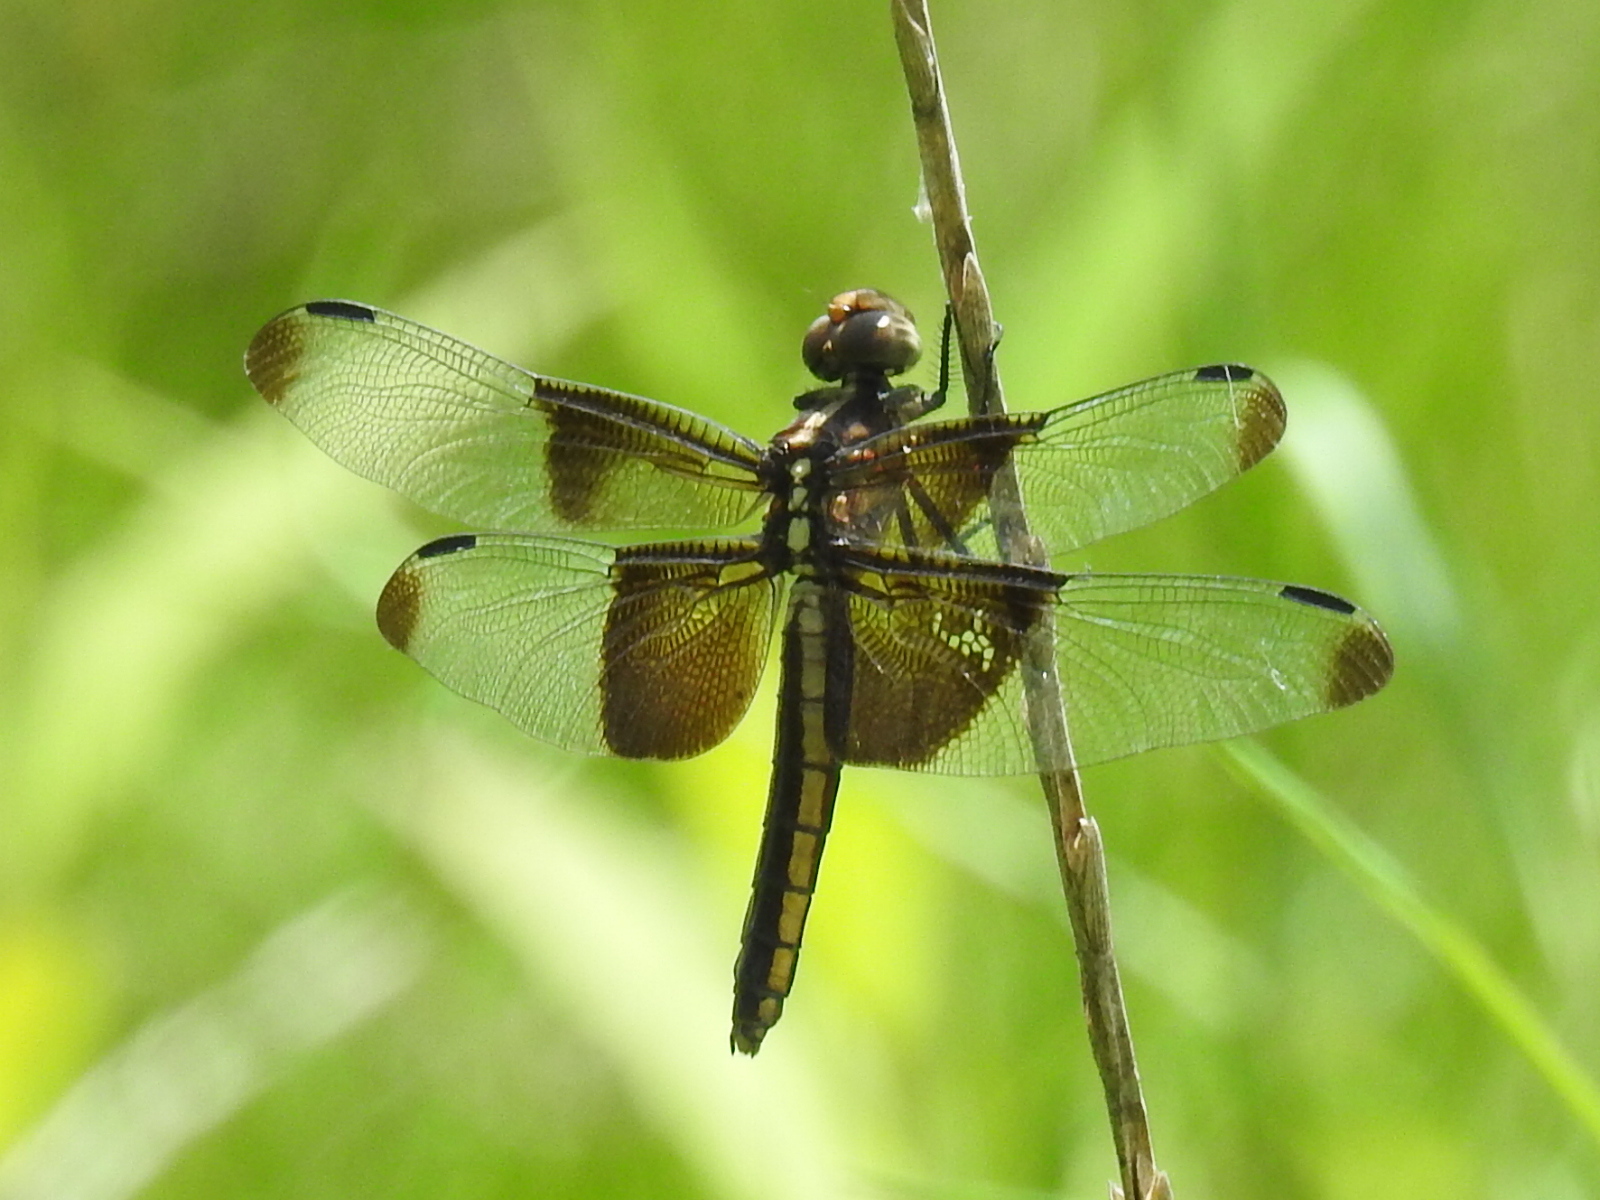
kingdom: Animalia
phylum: Arthropoda
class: Insecta
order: Odonata
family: Libellulidae
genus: Libellula
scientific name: Libellula luctuosa
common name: Widow skimmer
